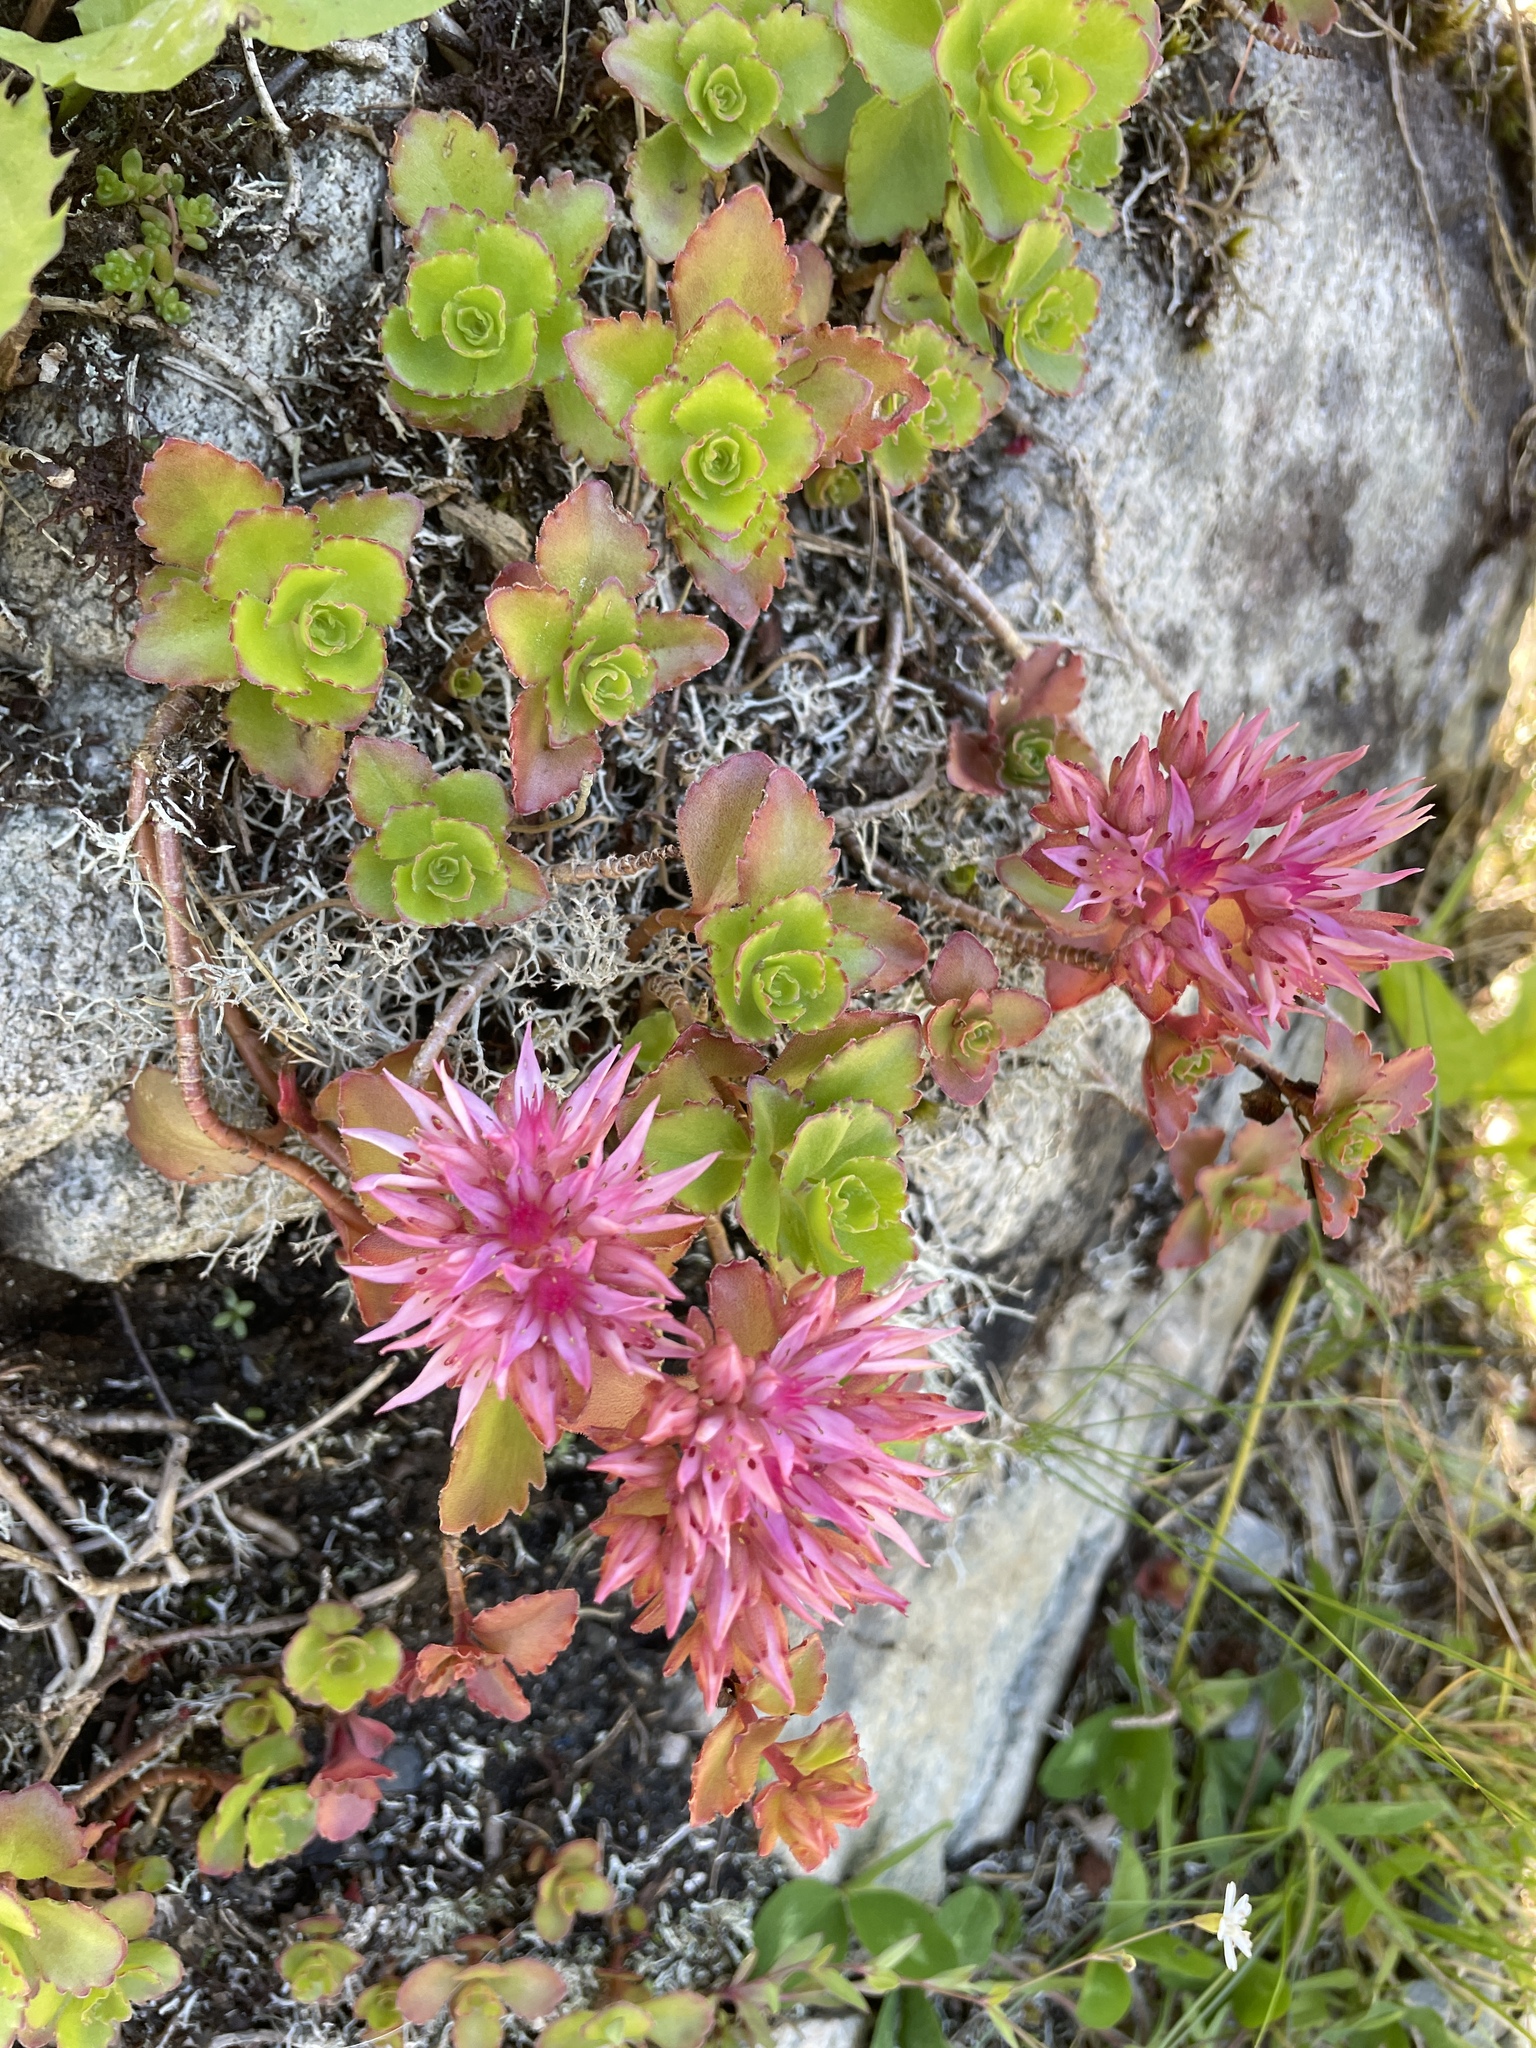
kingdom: Plantae
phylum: Tracheophyta
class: Magnoliopsida
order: Saxifragales
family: Crassulaceae
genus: Phedimus
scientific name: Phedimus spurius
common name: Caucasian stonecrop
